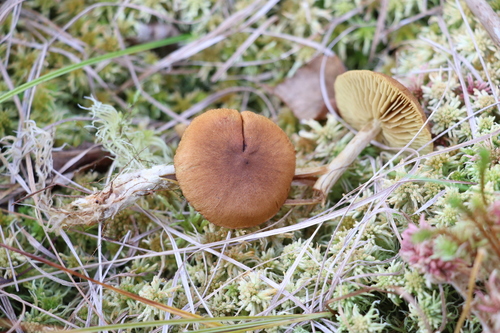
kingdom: Fungi
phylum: Basidiomycota
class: Agaricomycetes
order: Agaricales
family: Cortinariaceae
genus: Cortinarius
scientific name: Cortinarius tubarius
